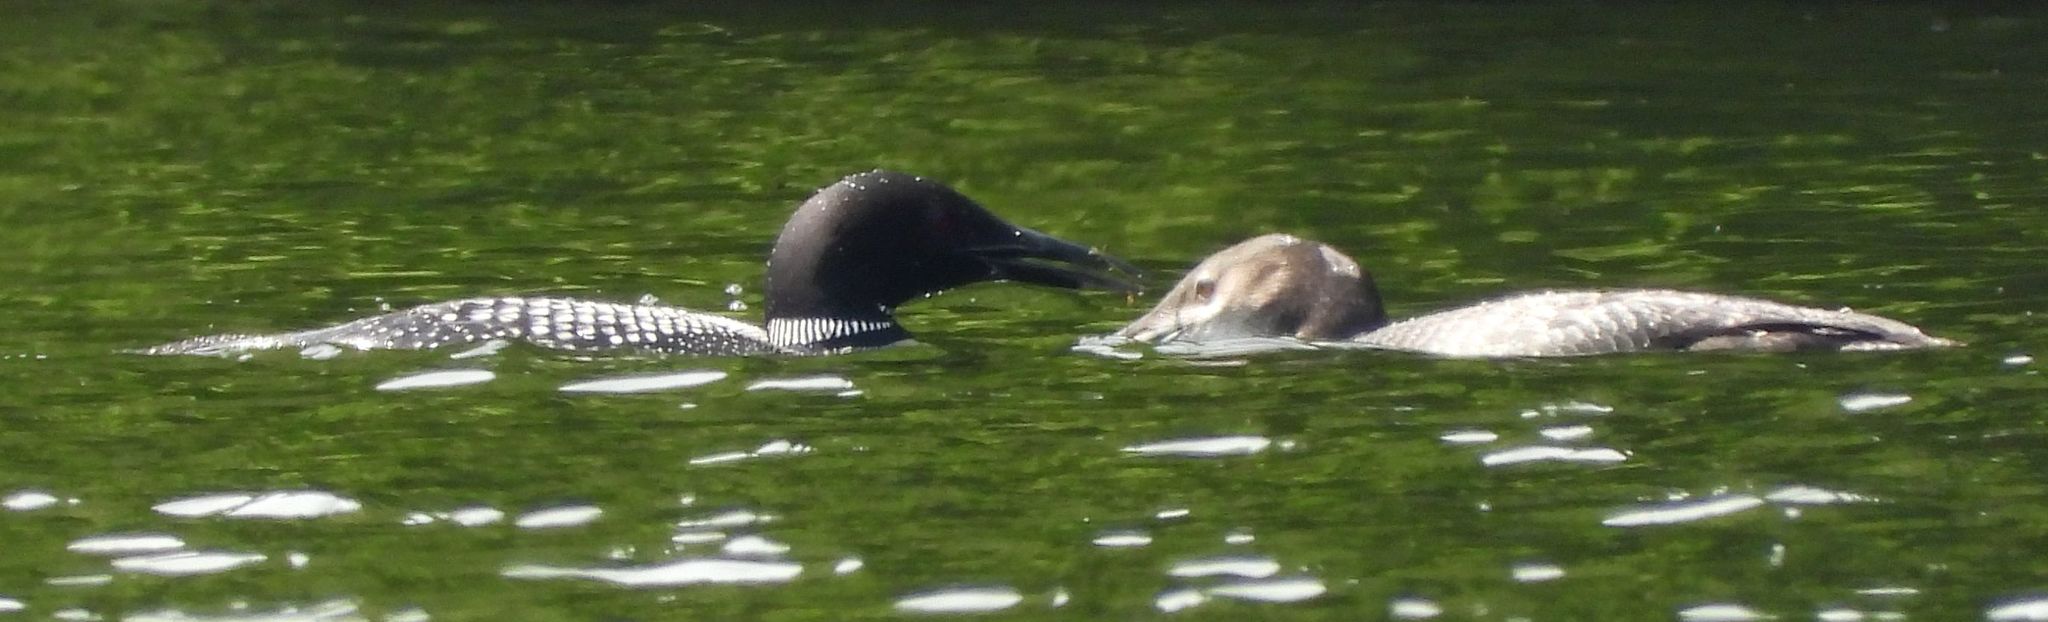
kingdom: Animalia
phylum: Chordata
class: Aves
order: Gaviiformes
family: Gaviidae
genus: Gavia
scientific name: Gavia immer
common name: Common loon
